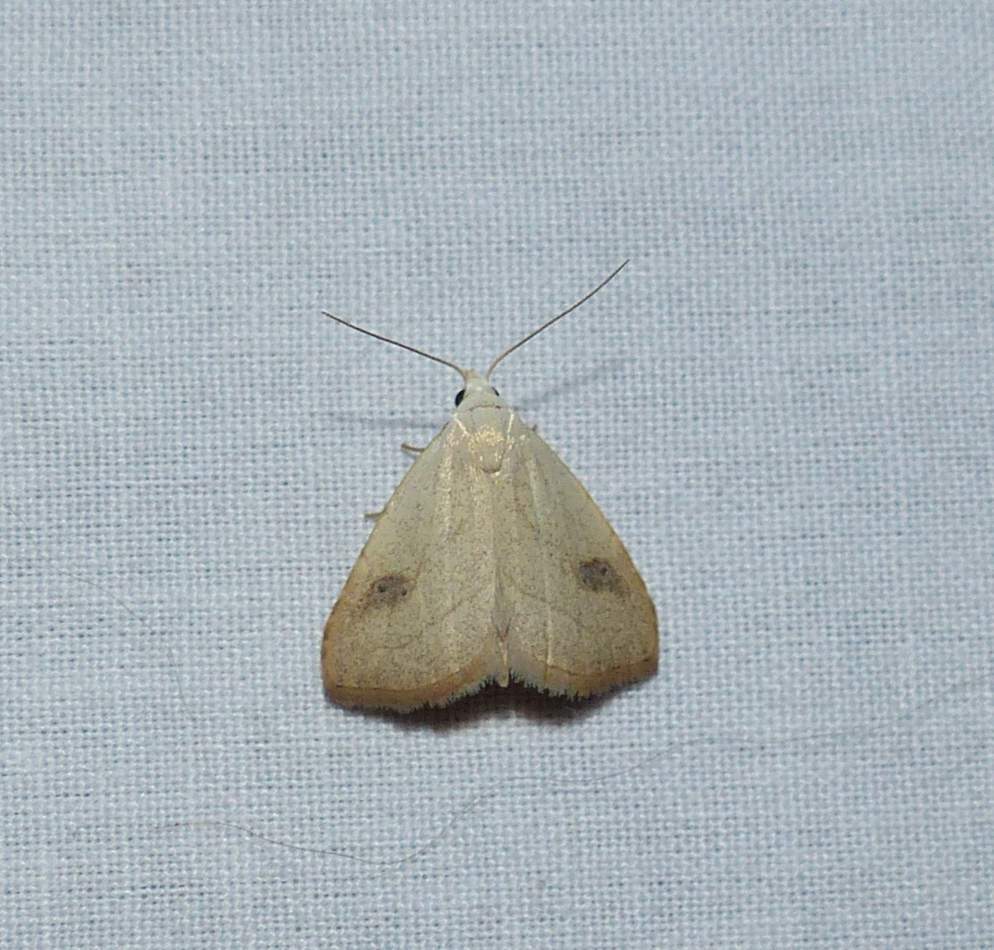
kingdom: Animalia
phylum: Arthropoda
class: Insecta
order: Lepidoptera
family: Erebidae
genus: Rivula
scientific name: Rivula propinqualis
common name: Spotted grass moth
